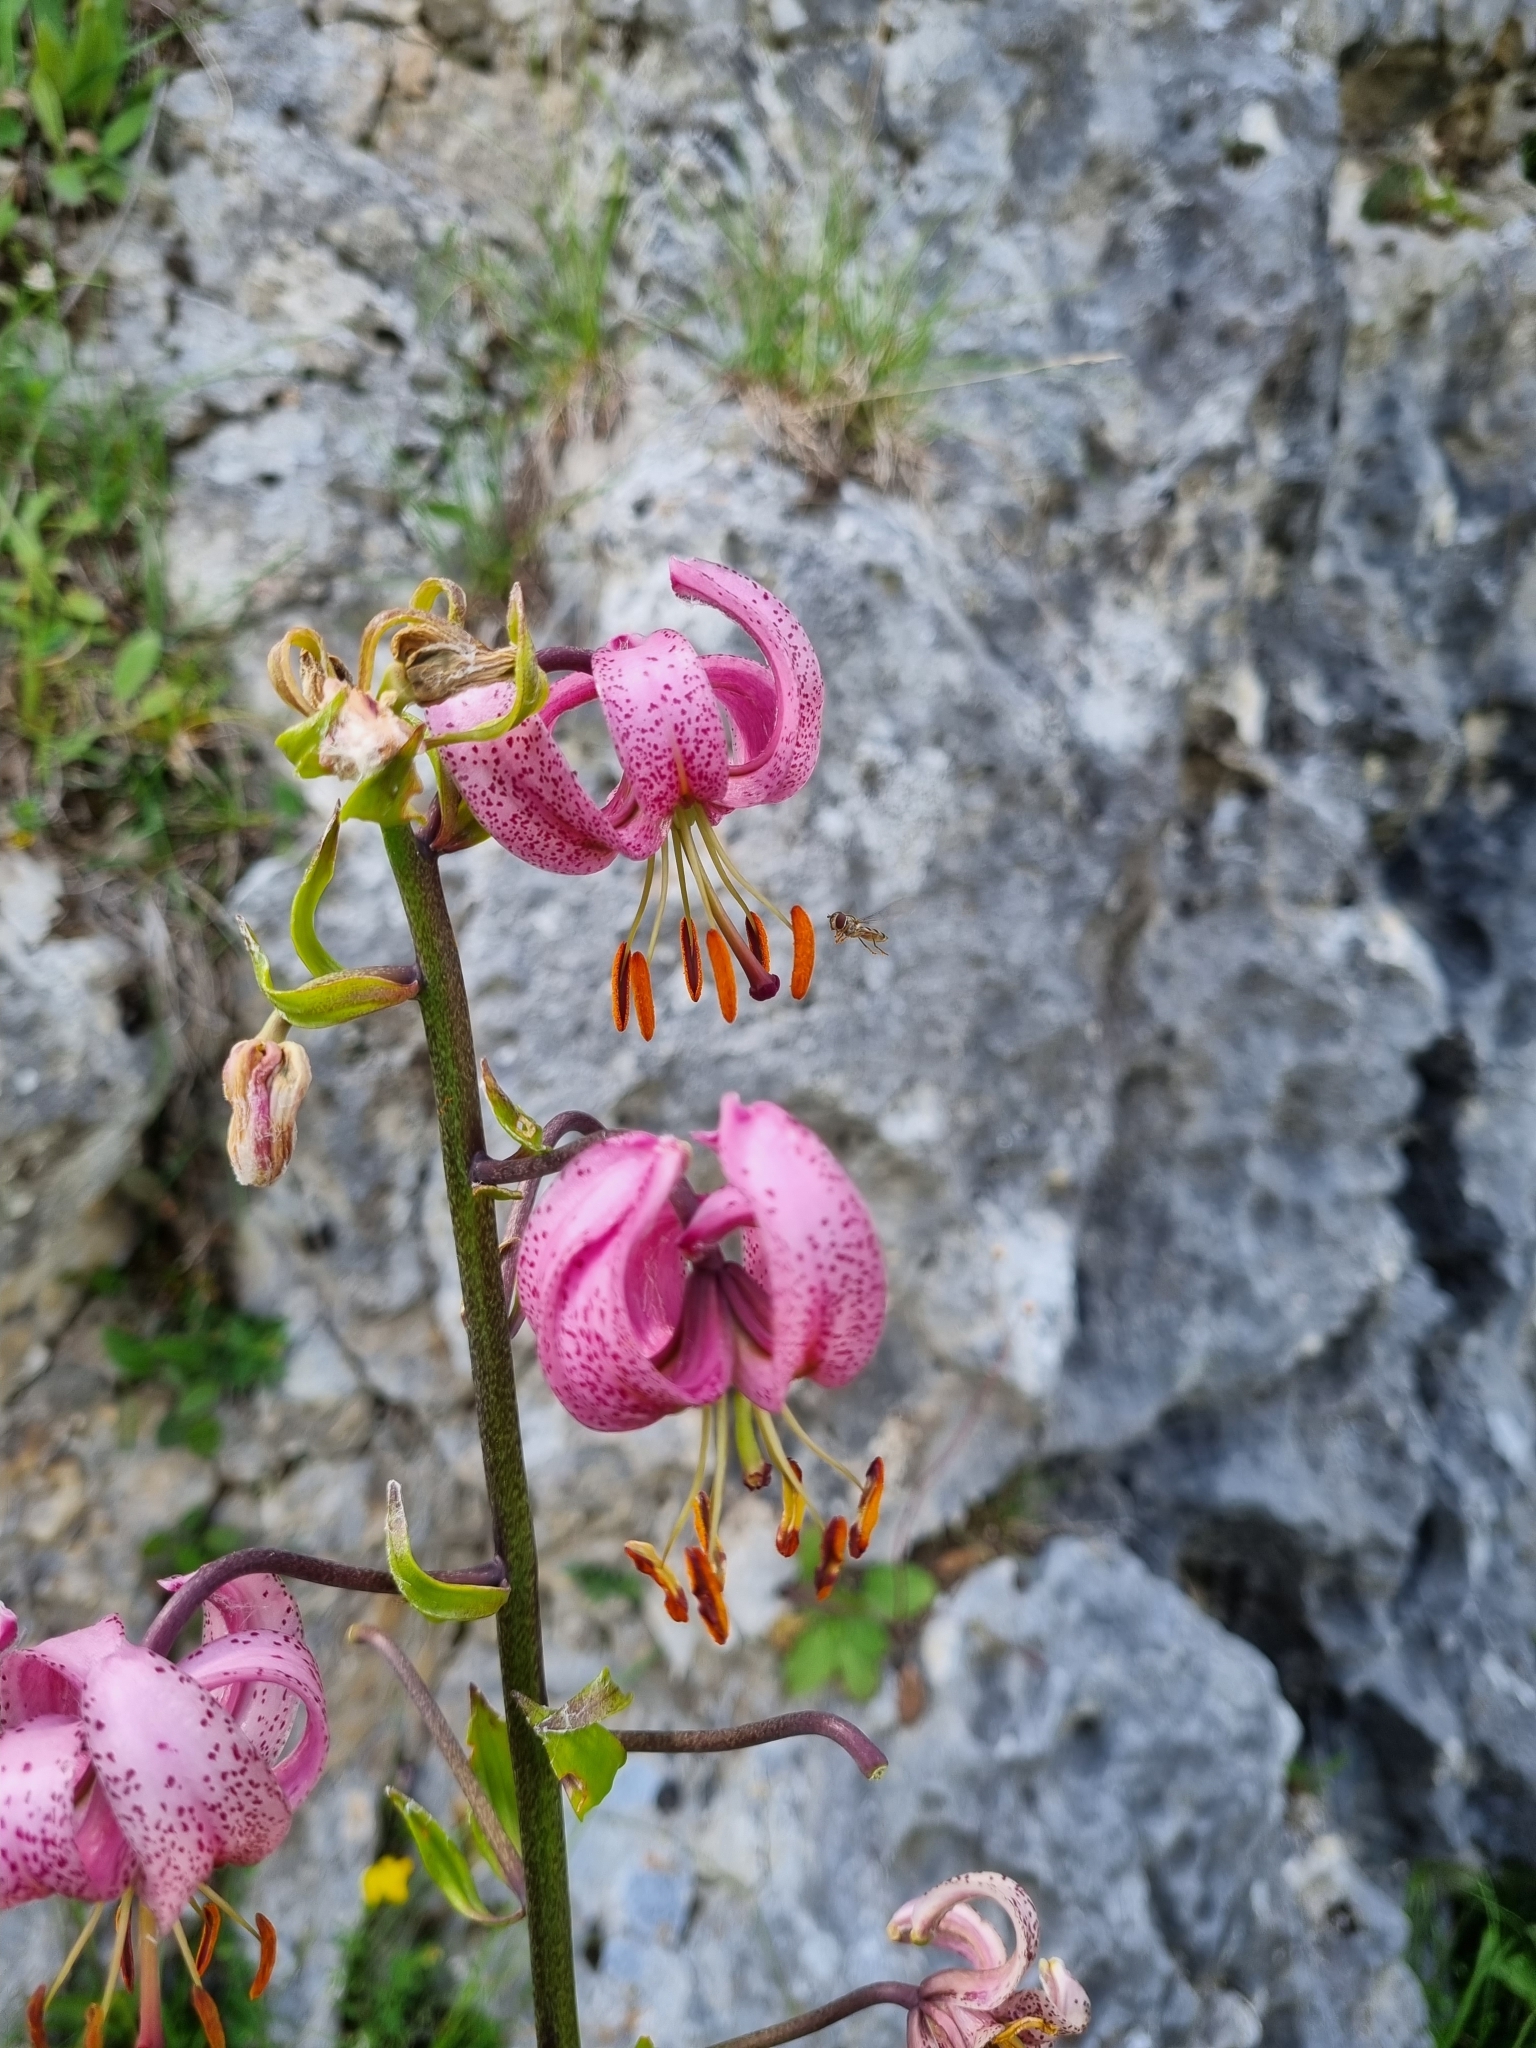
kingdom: Plantae
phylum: Tracheophyta
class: Liliopsida
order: Liliales
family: Liliaceae
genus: Lilium
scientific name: Lilium martagon
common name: Martagon lily
